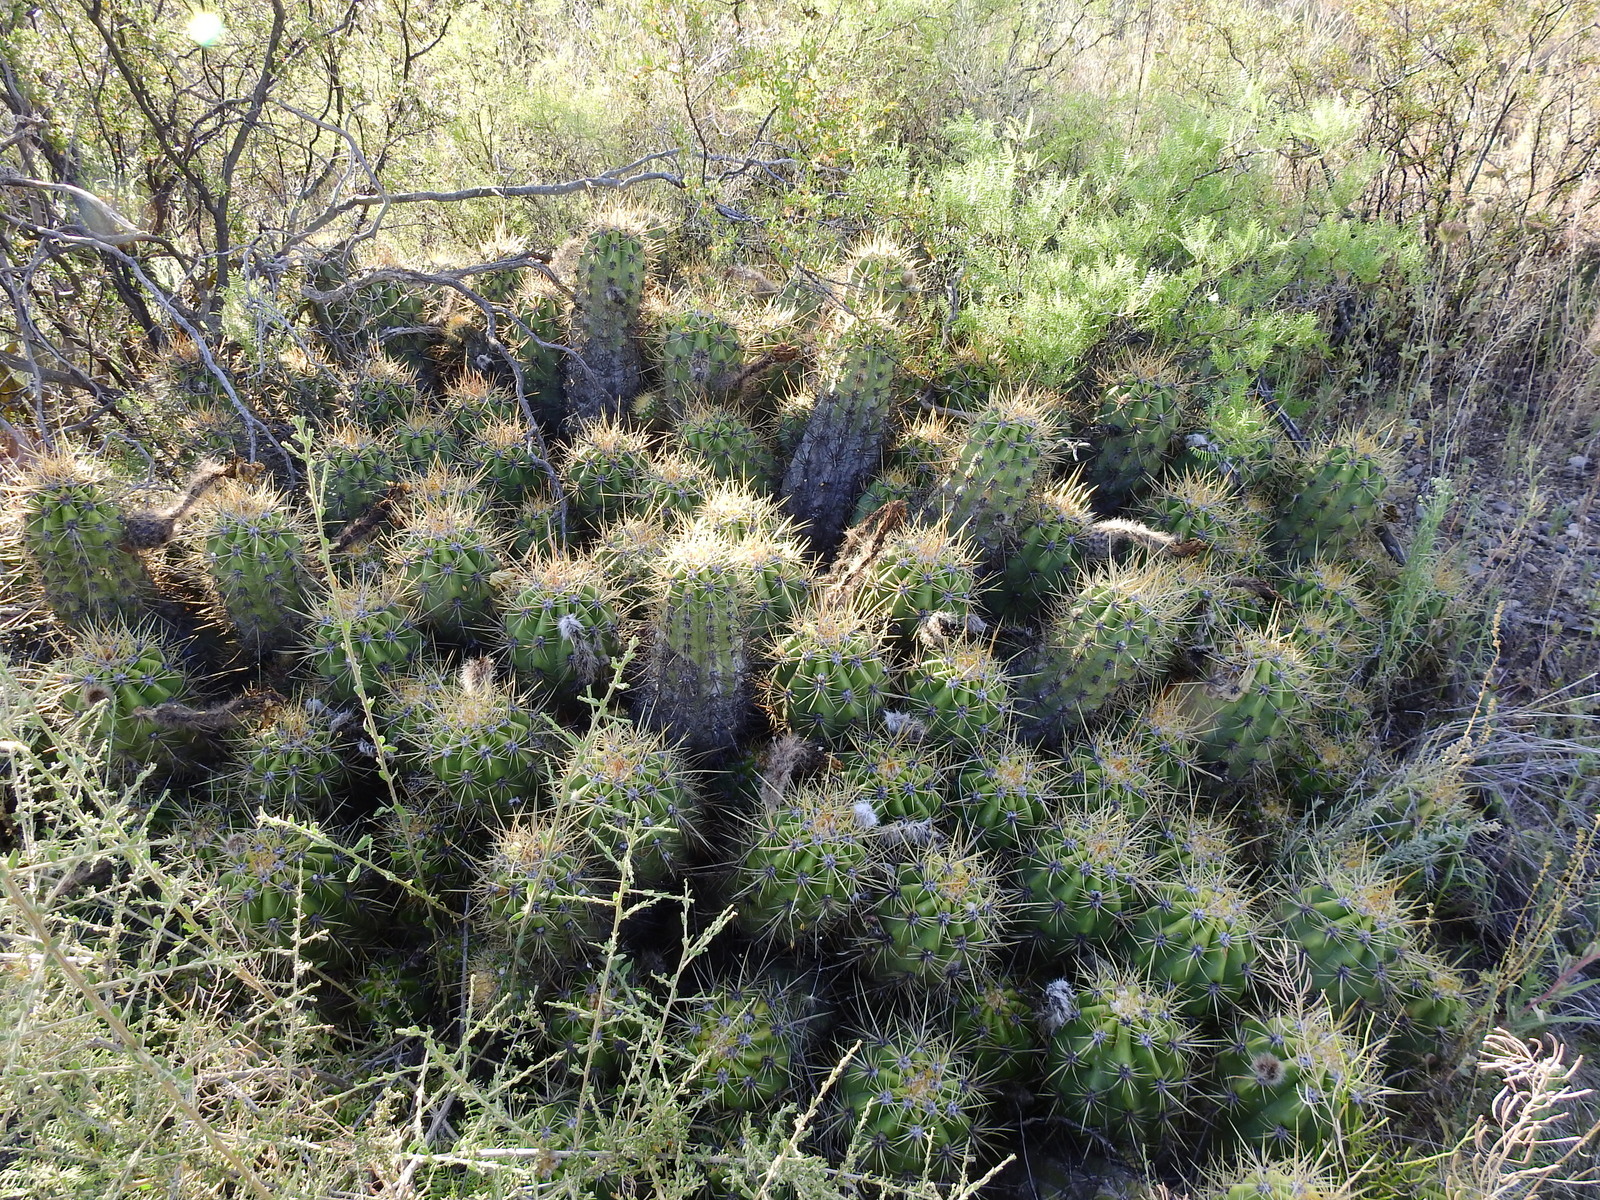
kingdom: Plantae
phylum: Tracheophyta
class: Magnoliopsida
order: Caryophyllales
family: Cactaceae
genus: Soehrensia
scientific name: Soehrensia candicans
